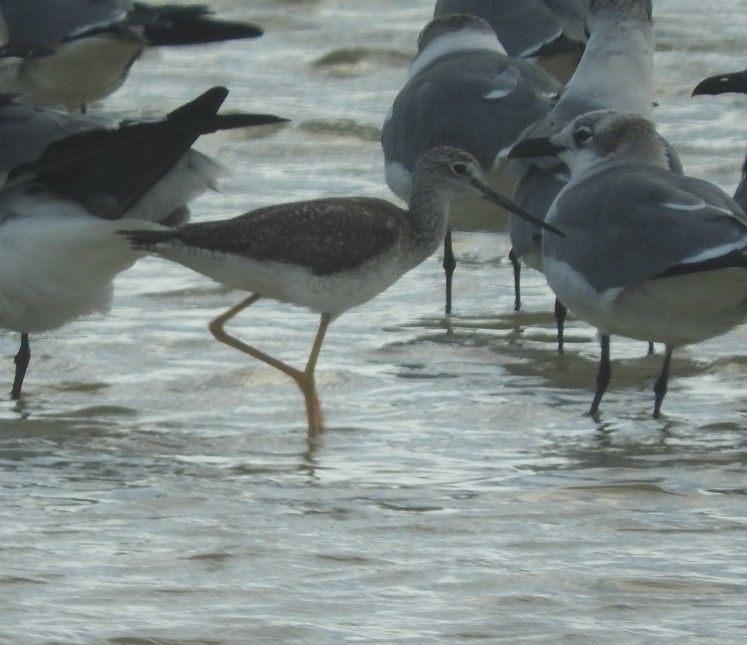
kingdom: Animalia
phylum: Chordata
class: Aves
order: Charadriiformes
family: Scolopacidae
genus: Tringa
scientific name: Tringa melanoleuca
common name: Greater yellowlegs
